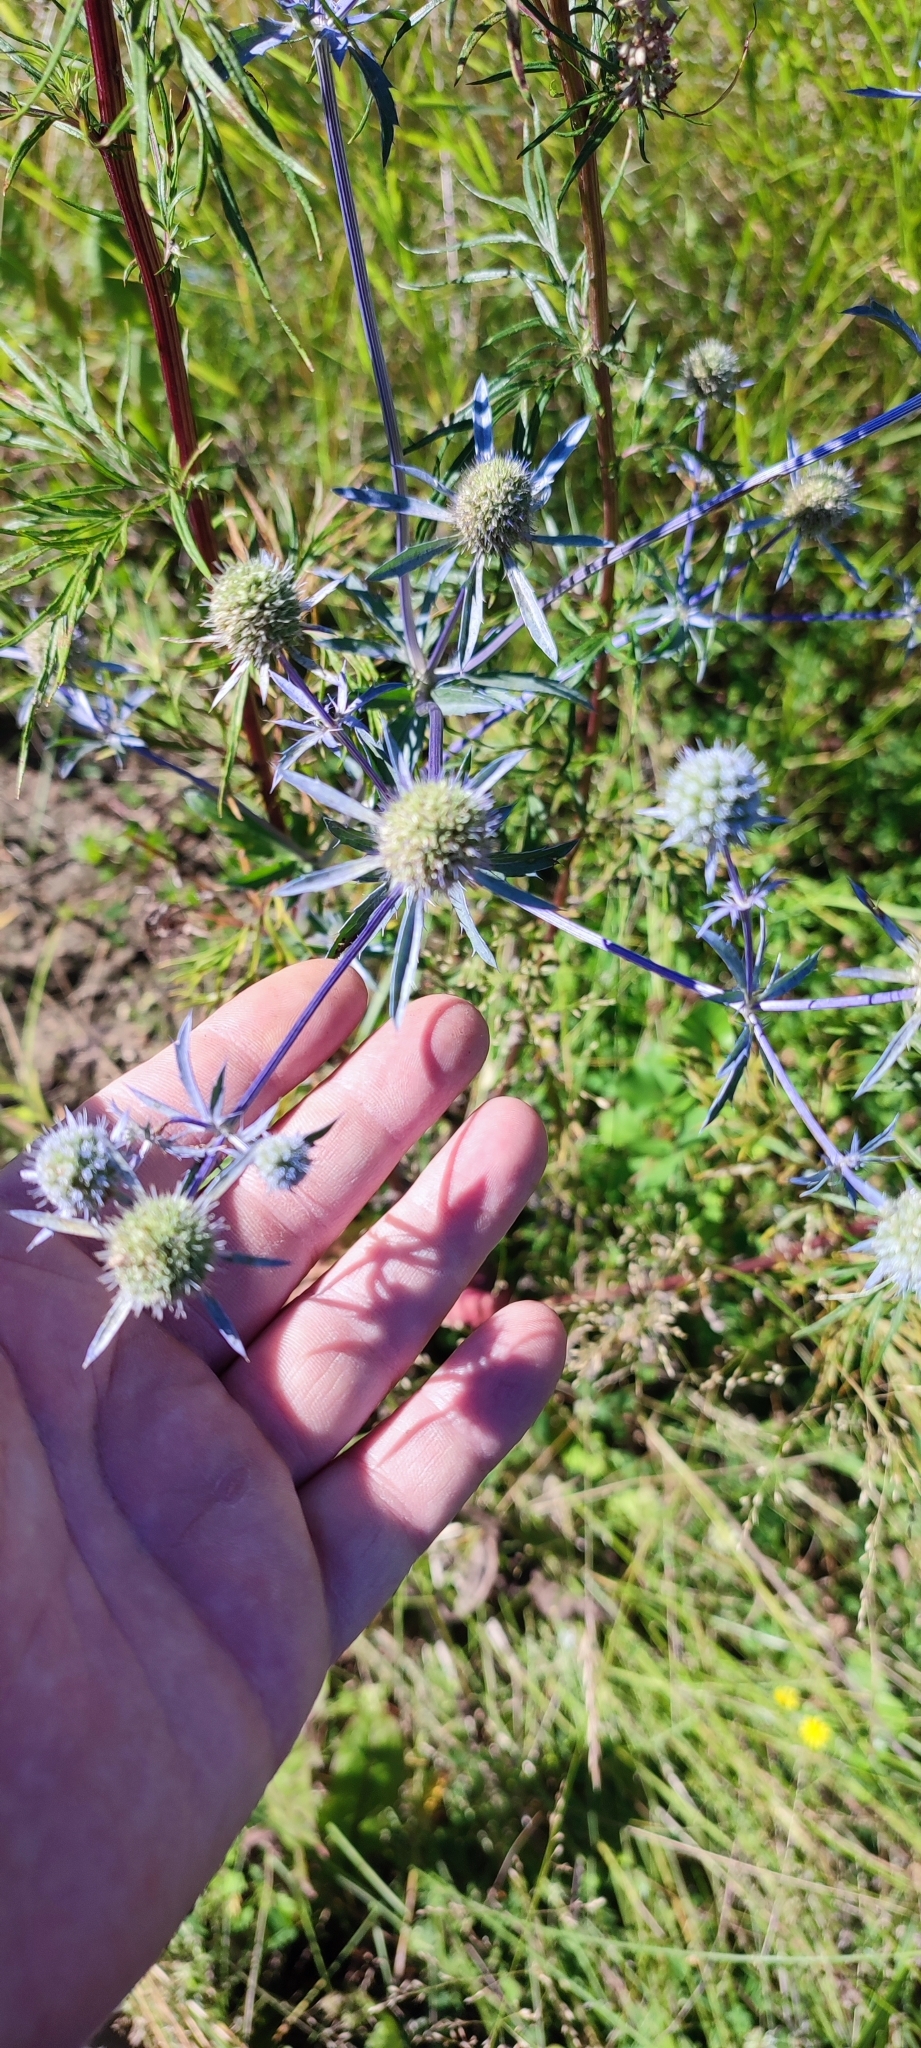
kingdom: Plantae
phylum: Tracheophyta
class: Magnoliopsida
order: Apiales
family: Apiaceae
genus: Eryngium
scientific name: Eryngium planum
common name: Blue eryngo
